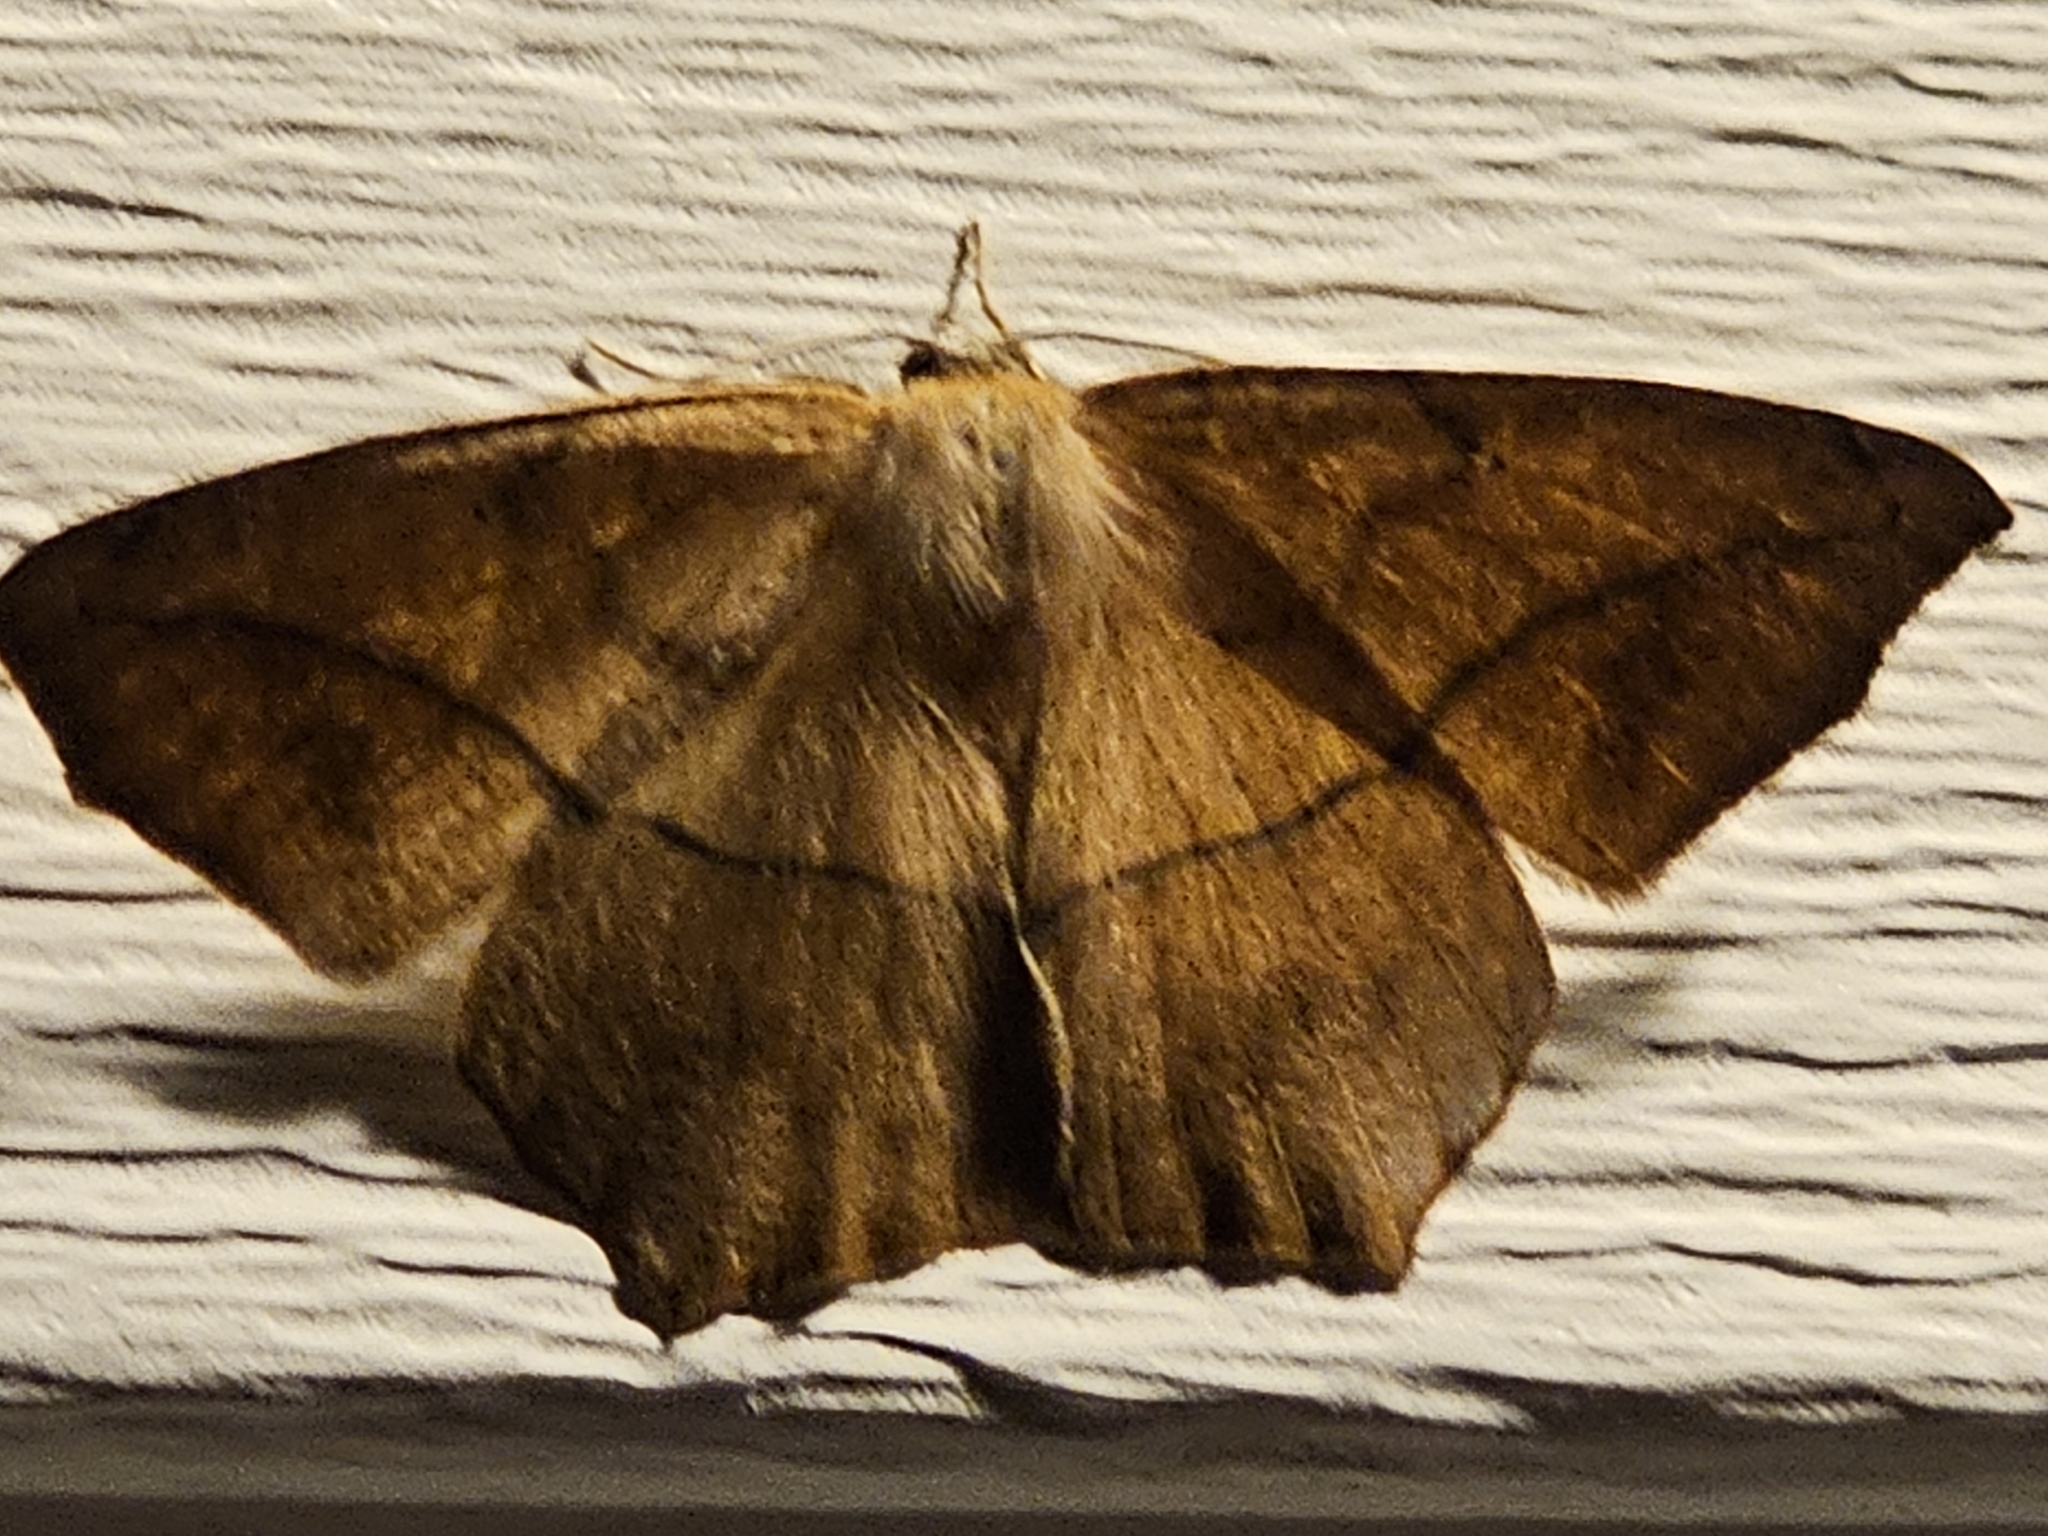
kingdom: Animalia
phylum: Arthropoda
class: Insecta
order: Lepidoptera
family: Geometridae
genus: Prochoerodes
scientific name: Prochoerodes lineola
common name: Large maple spanworm
